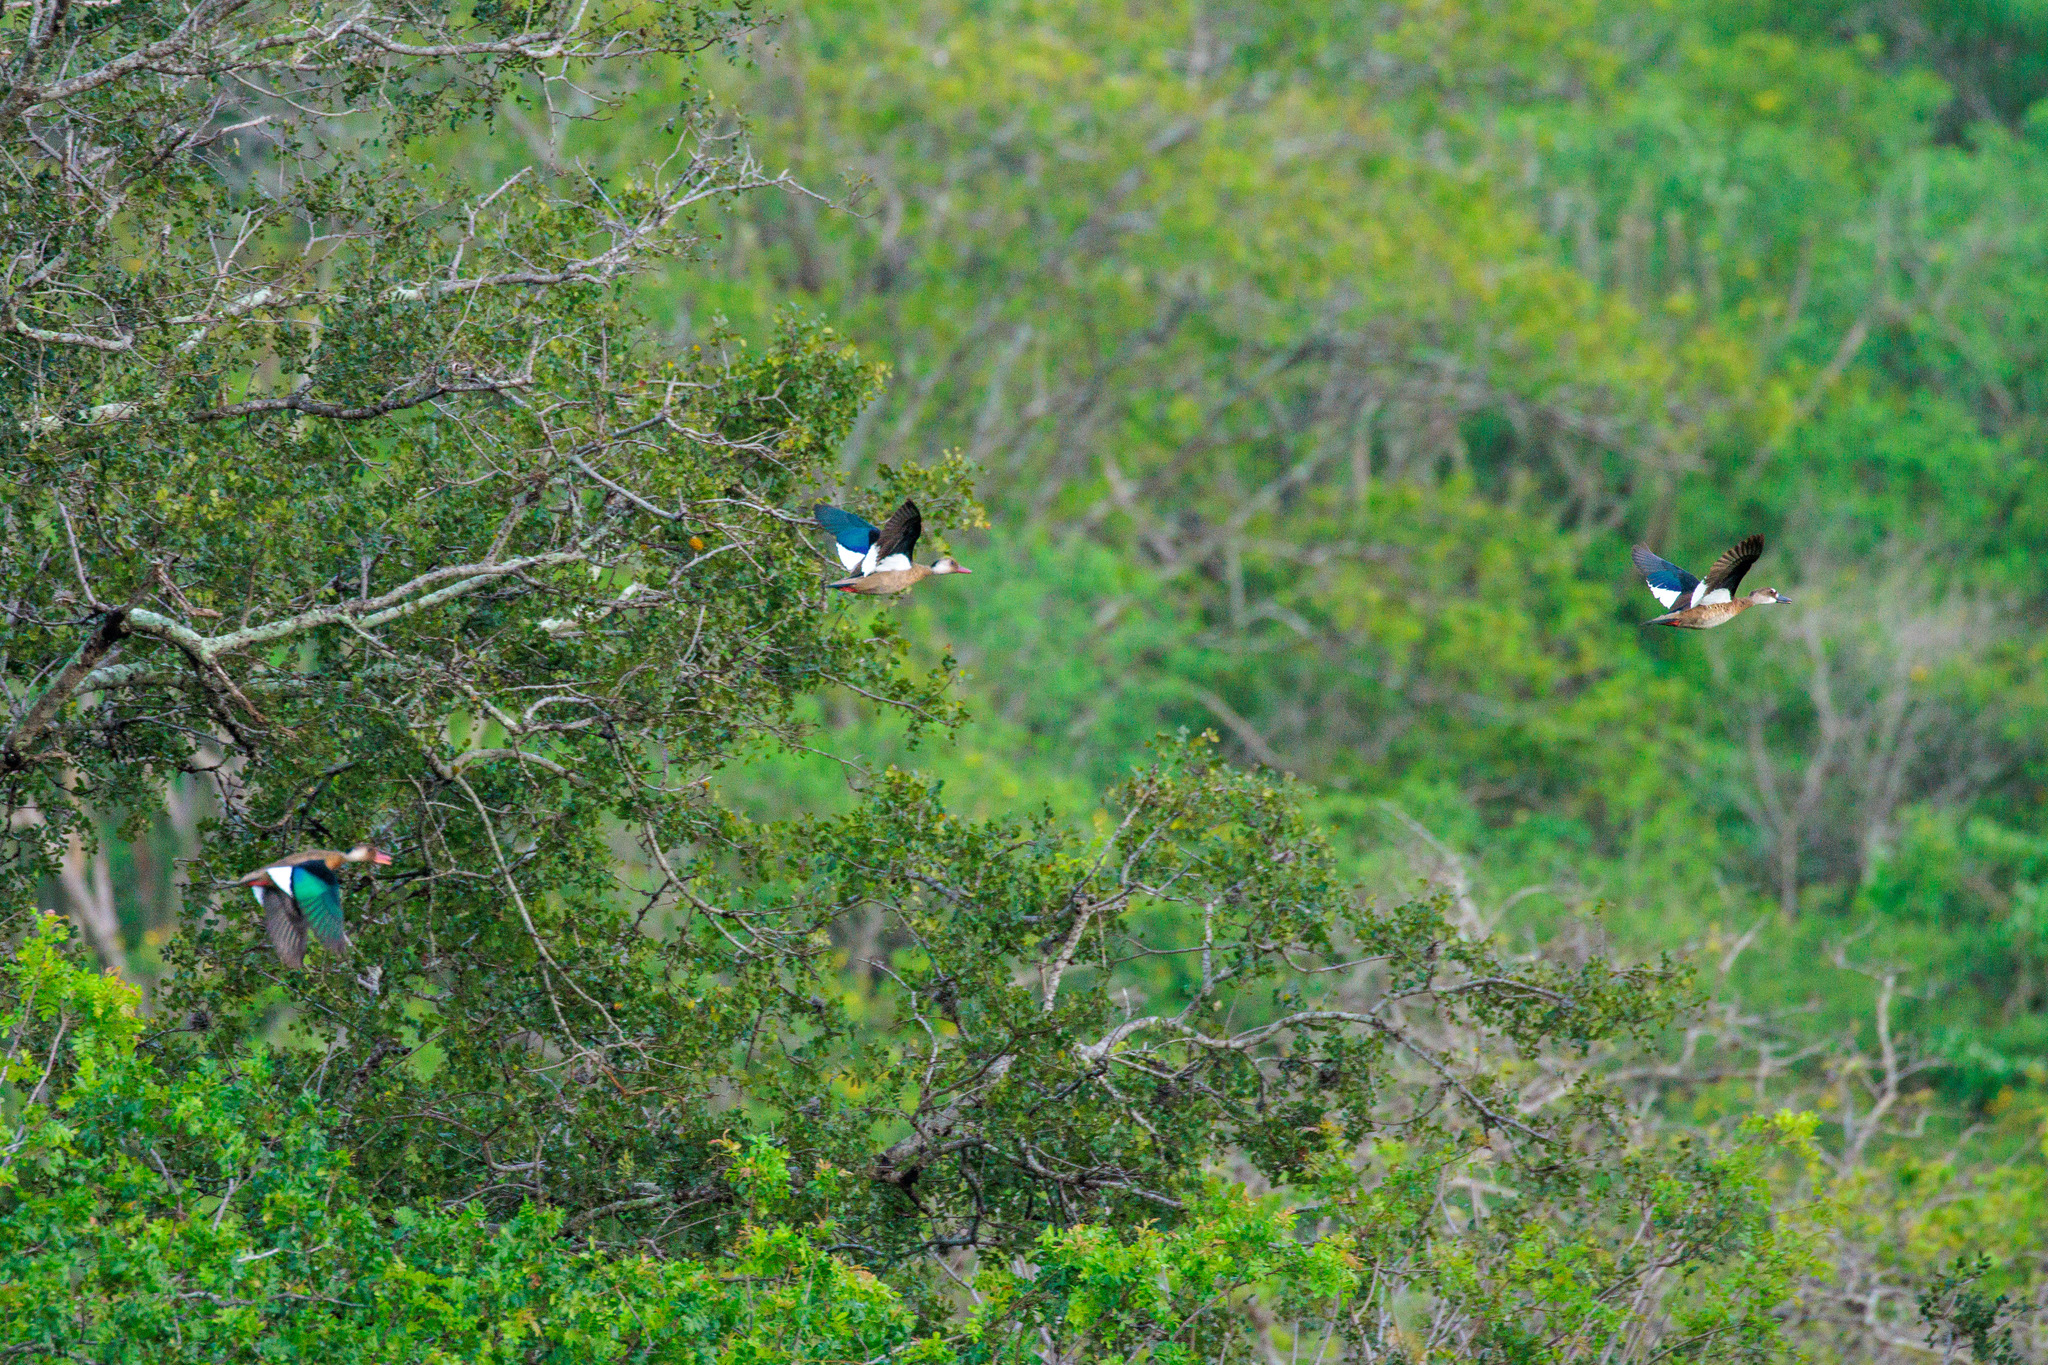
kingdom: Animalia
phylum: Chordata
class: Aves
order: Anseriformes
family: Anatidae
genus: Amazonetta
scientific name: Amazonetta brasiliensis
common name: Brazilian teal
